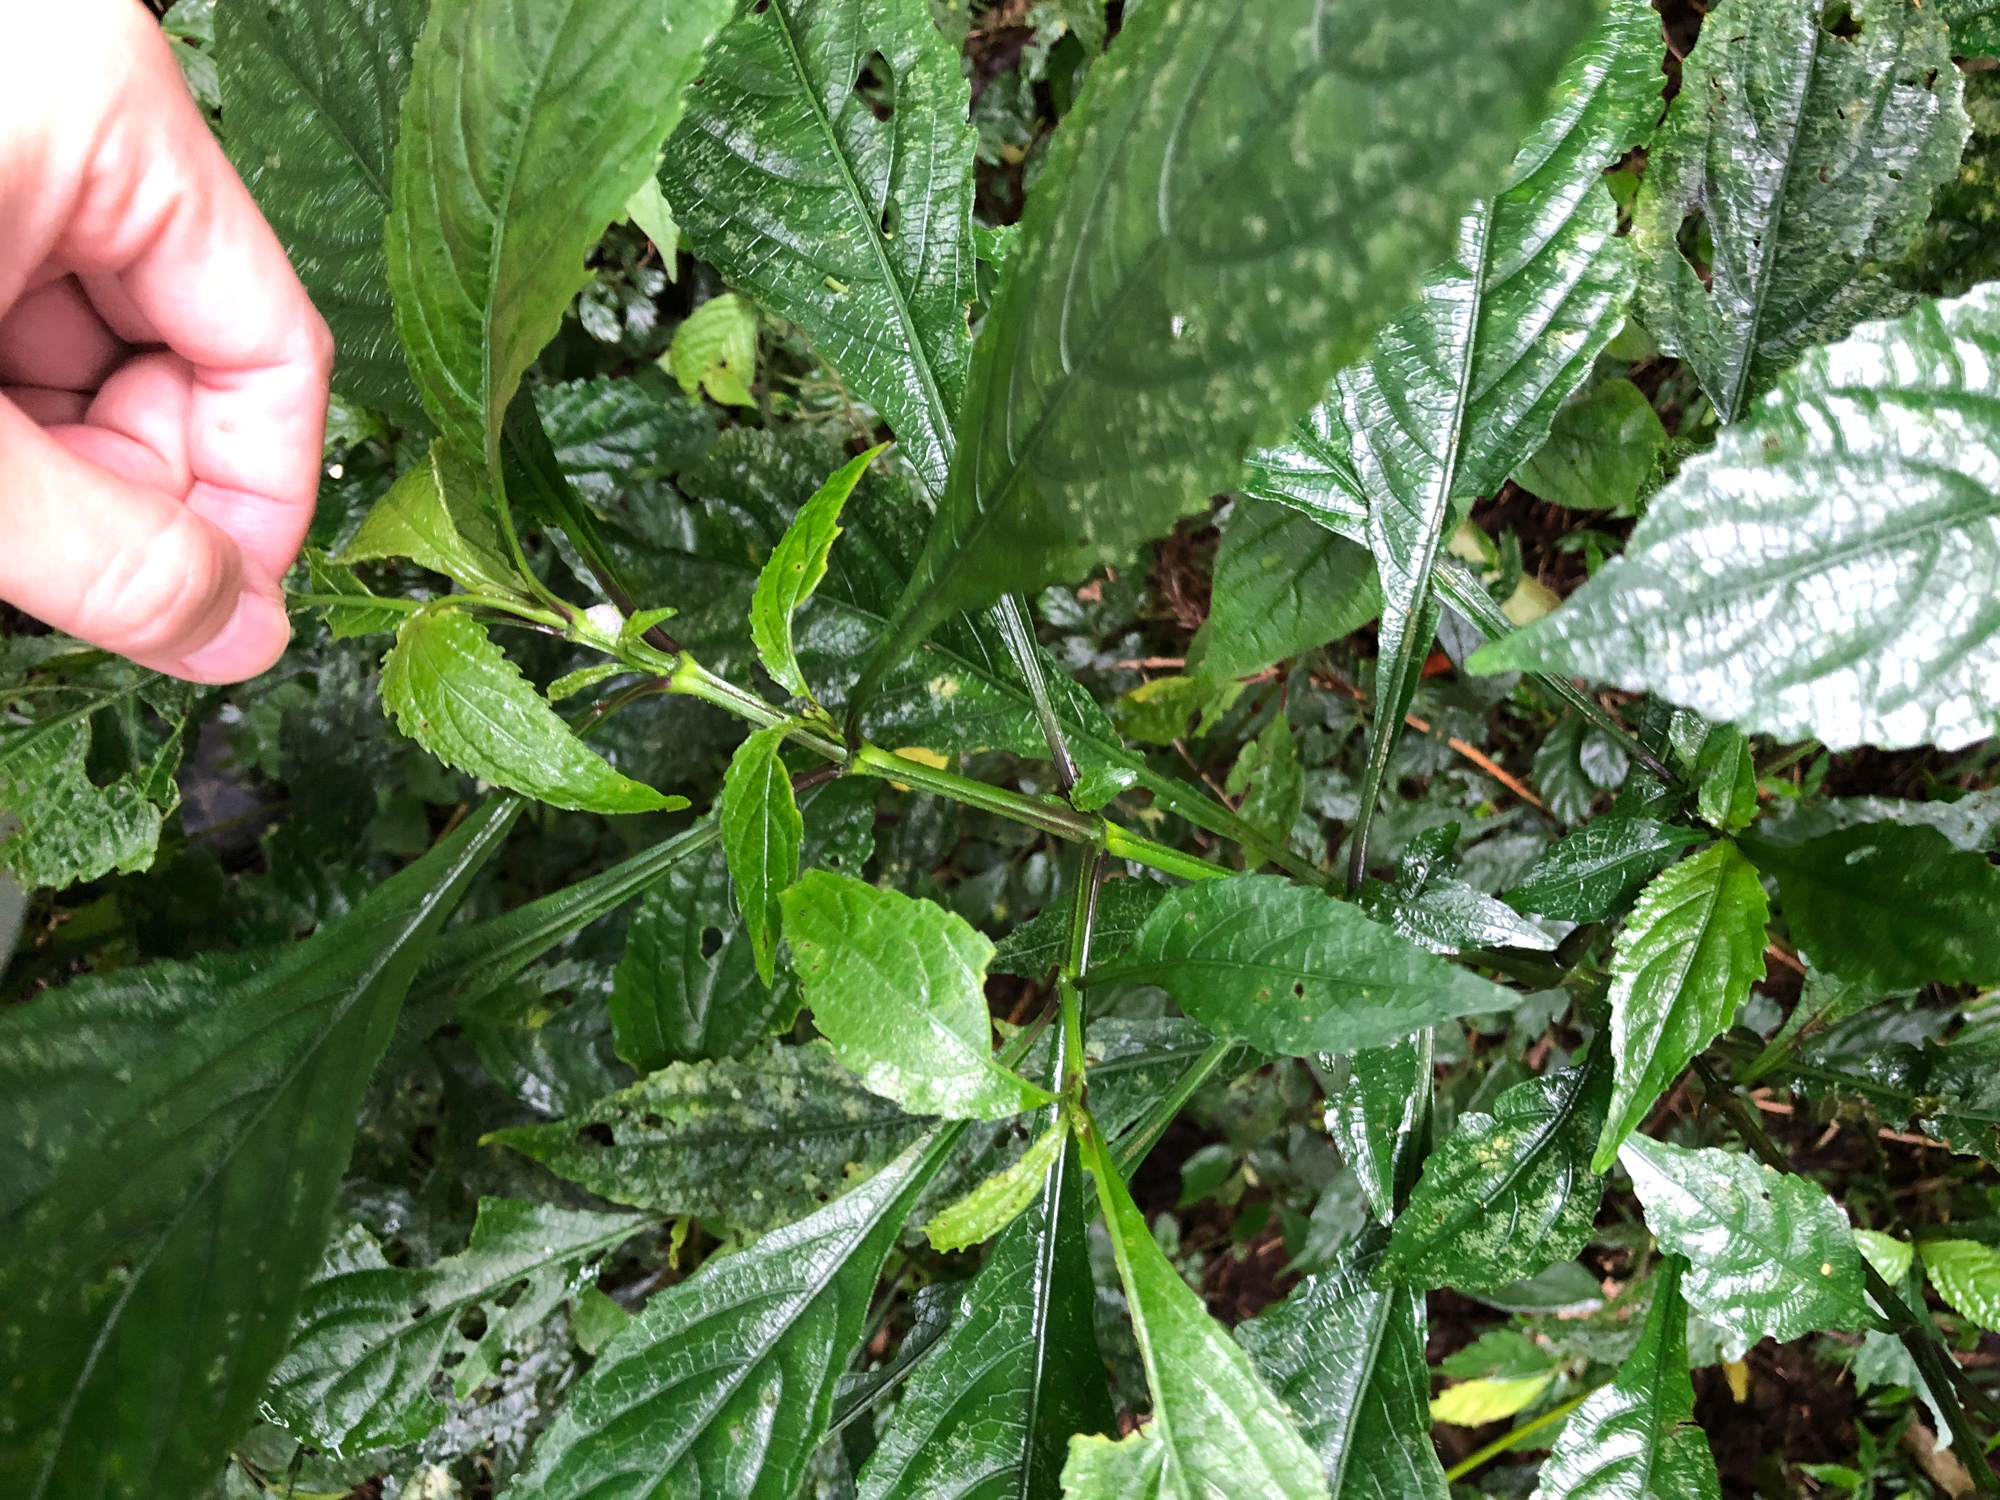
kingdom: Plantae
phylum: Tracheophyta
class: Magnoliopsida
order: Lamiales
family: Acanthaceae
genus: Strobilanthes
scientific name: Strobilanthes flexicaulis
